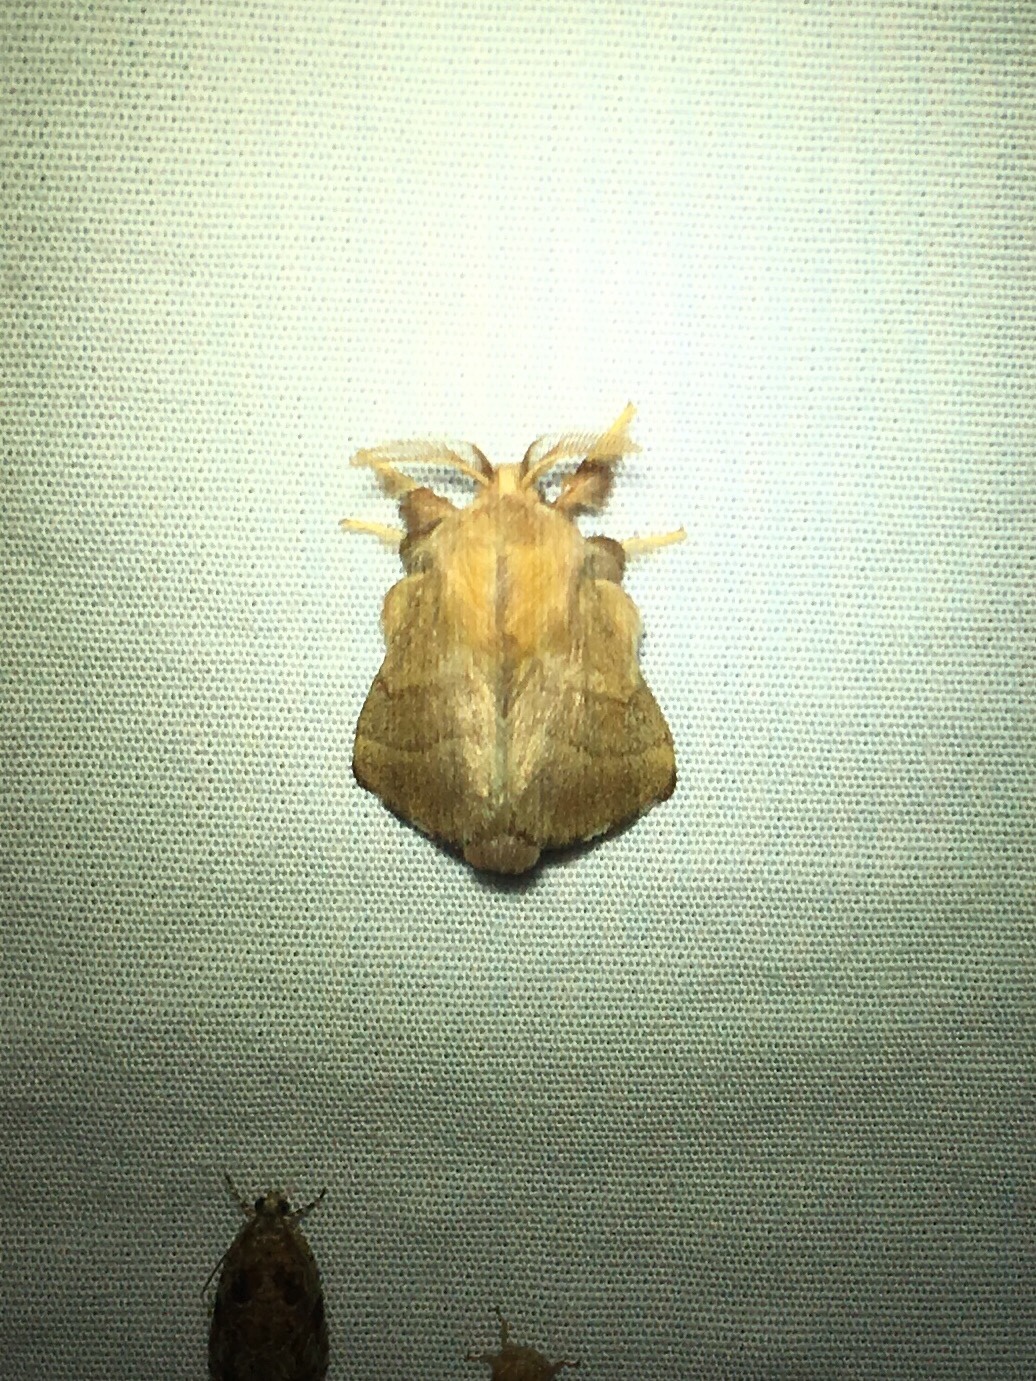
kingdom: Animalia
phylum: Arthropoda
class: Insecta
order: Lepidoptera
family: Lasiocampidae
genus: Malacosoma
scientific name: Malacosoma disstria
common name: Forest tent caterpillar
